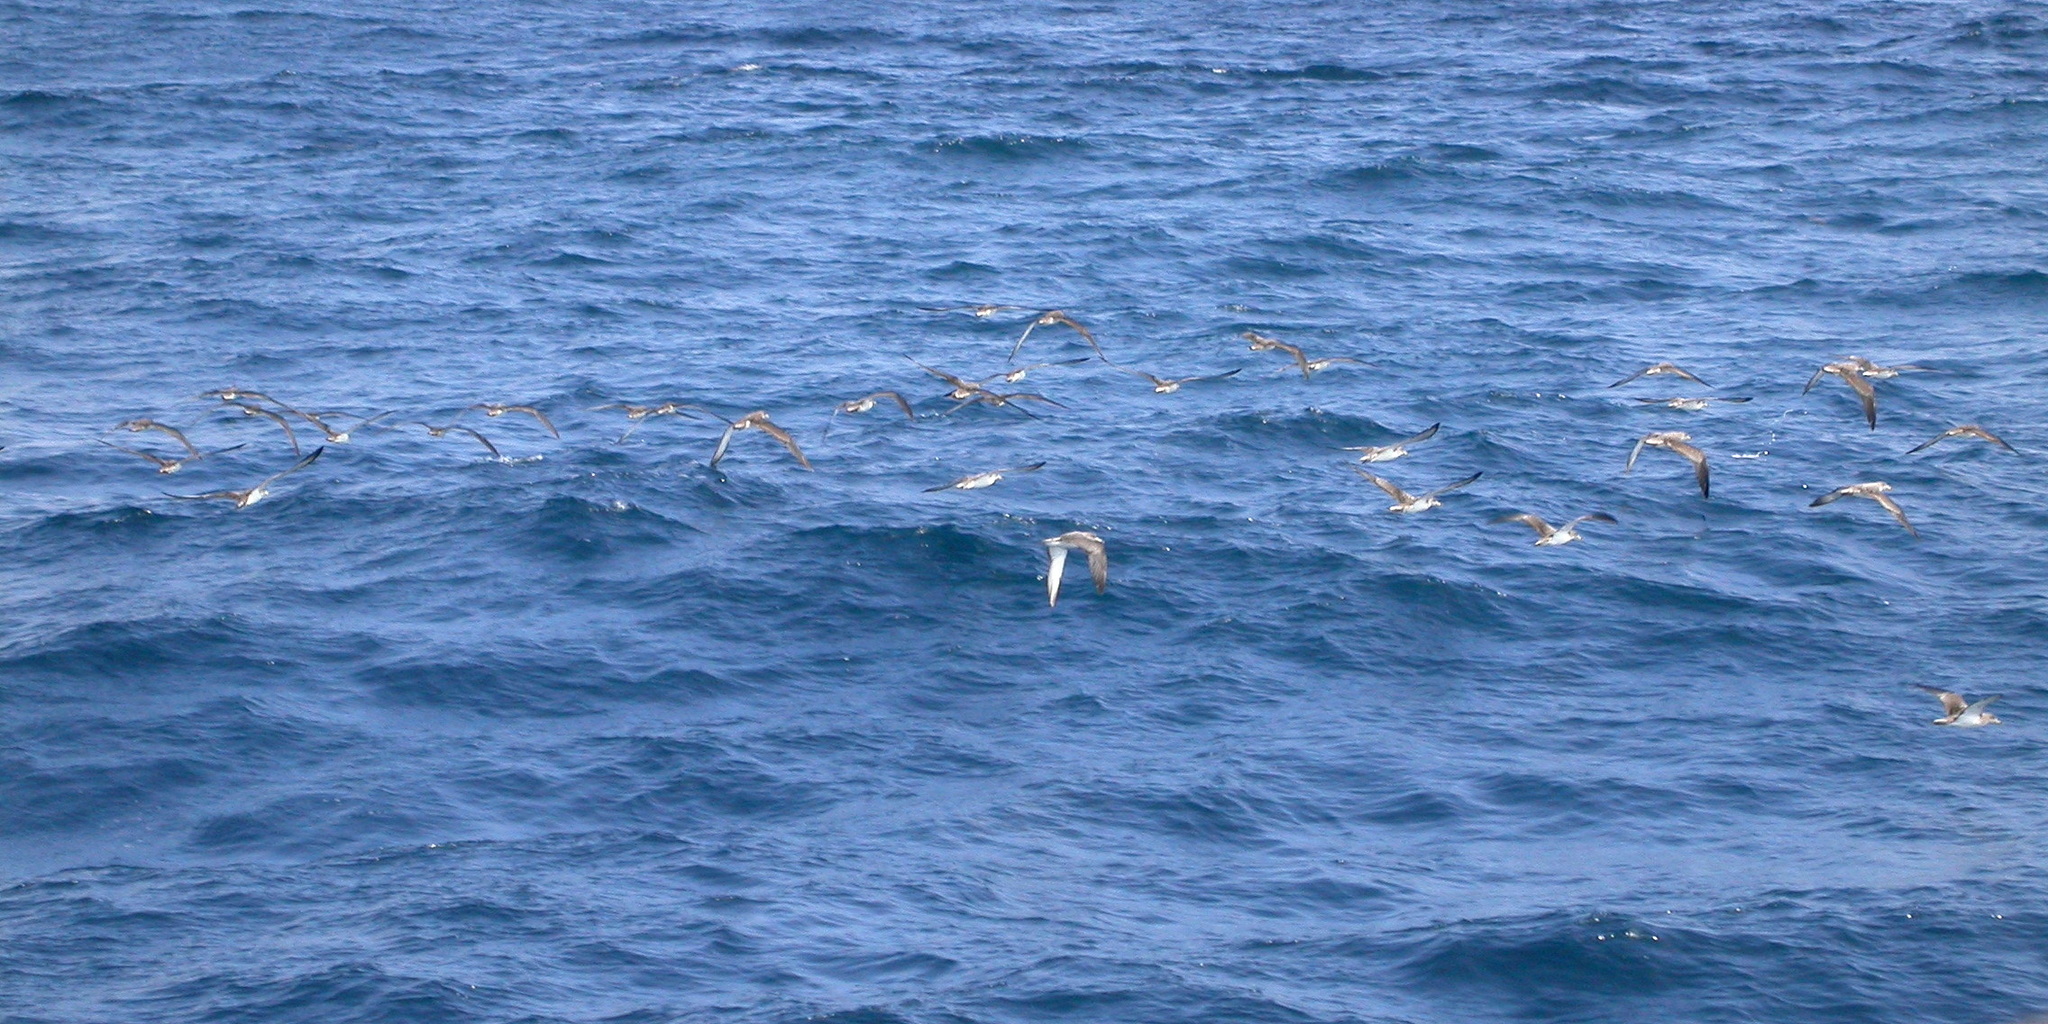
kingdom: Animalia
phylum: Chordata
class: Aves
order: Procellariiformes
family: Procellariidae
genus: Calonectris
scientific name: Calonectris diomedea
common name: Cory's shearwater
